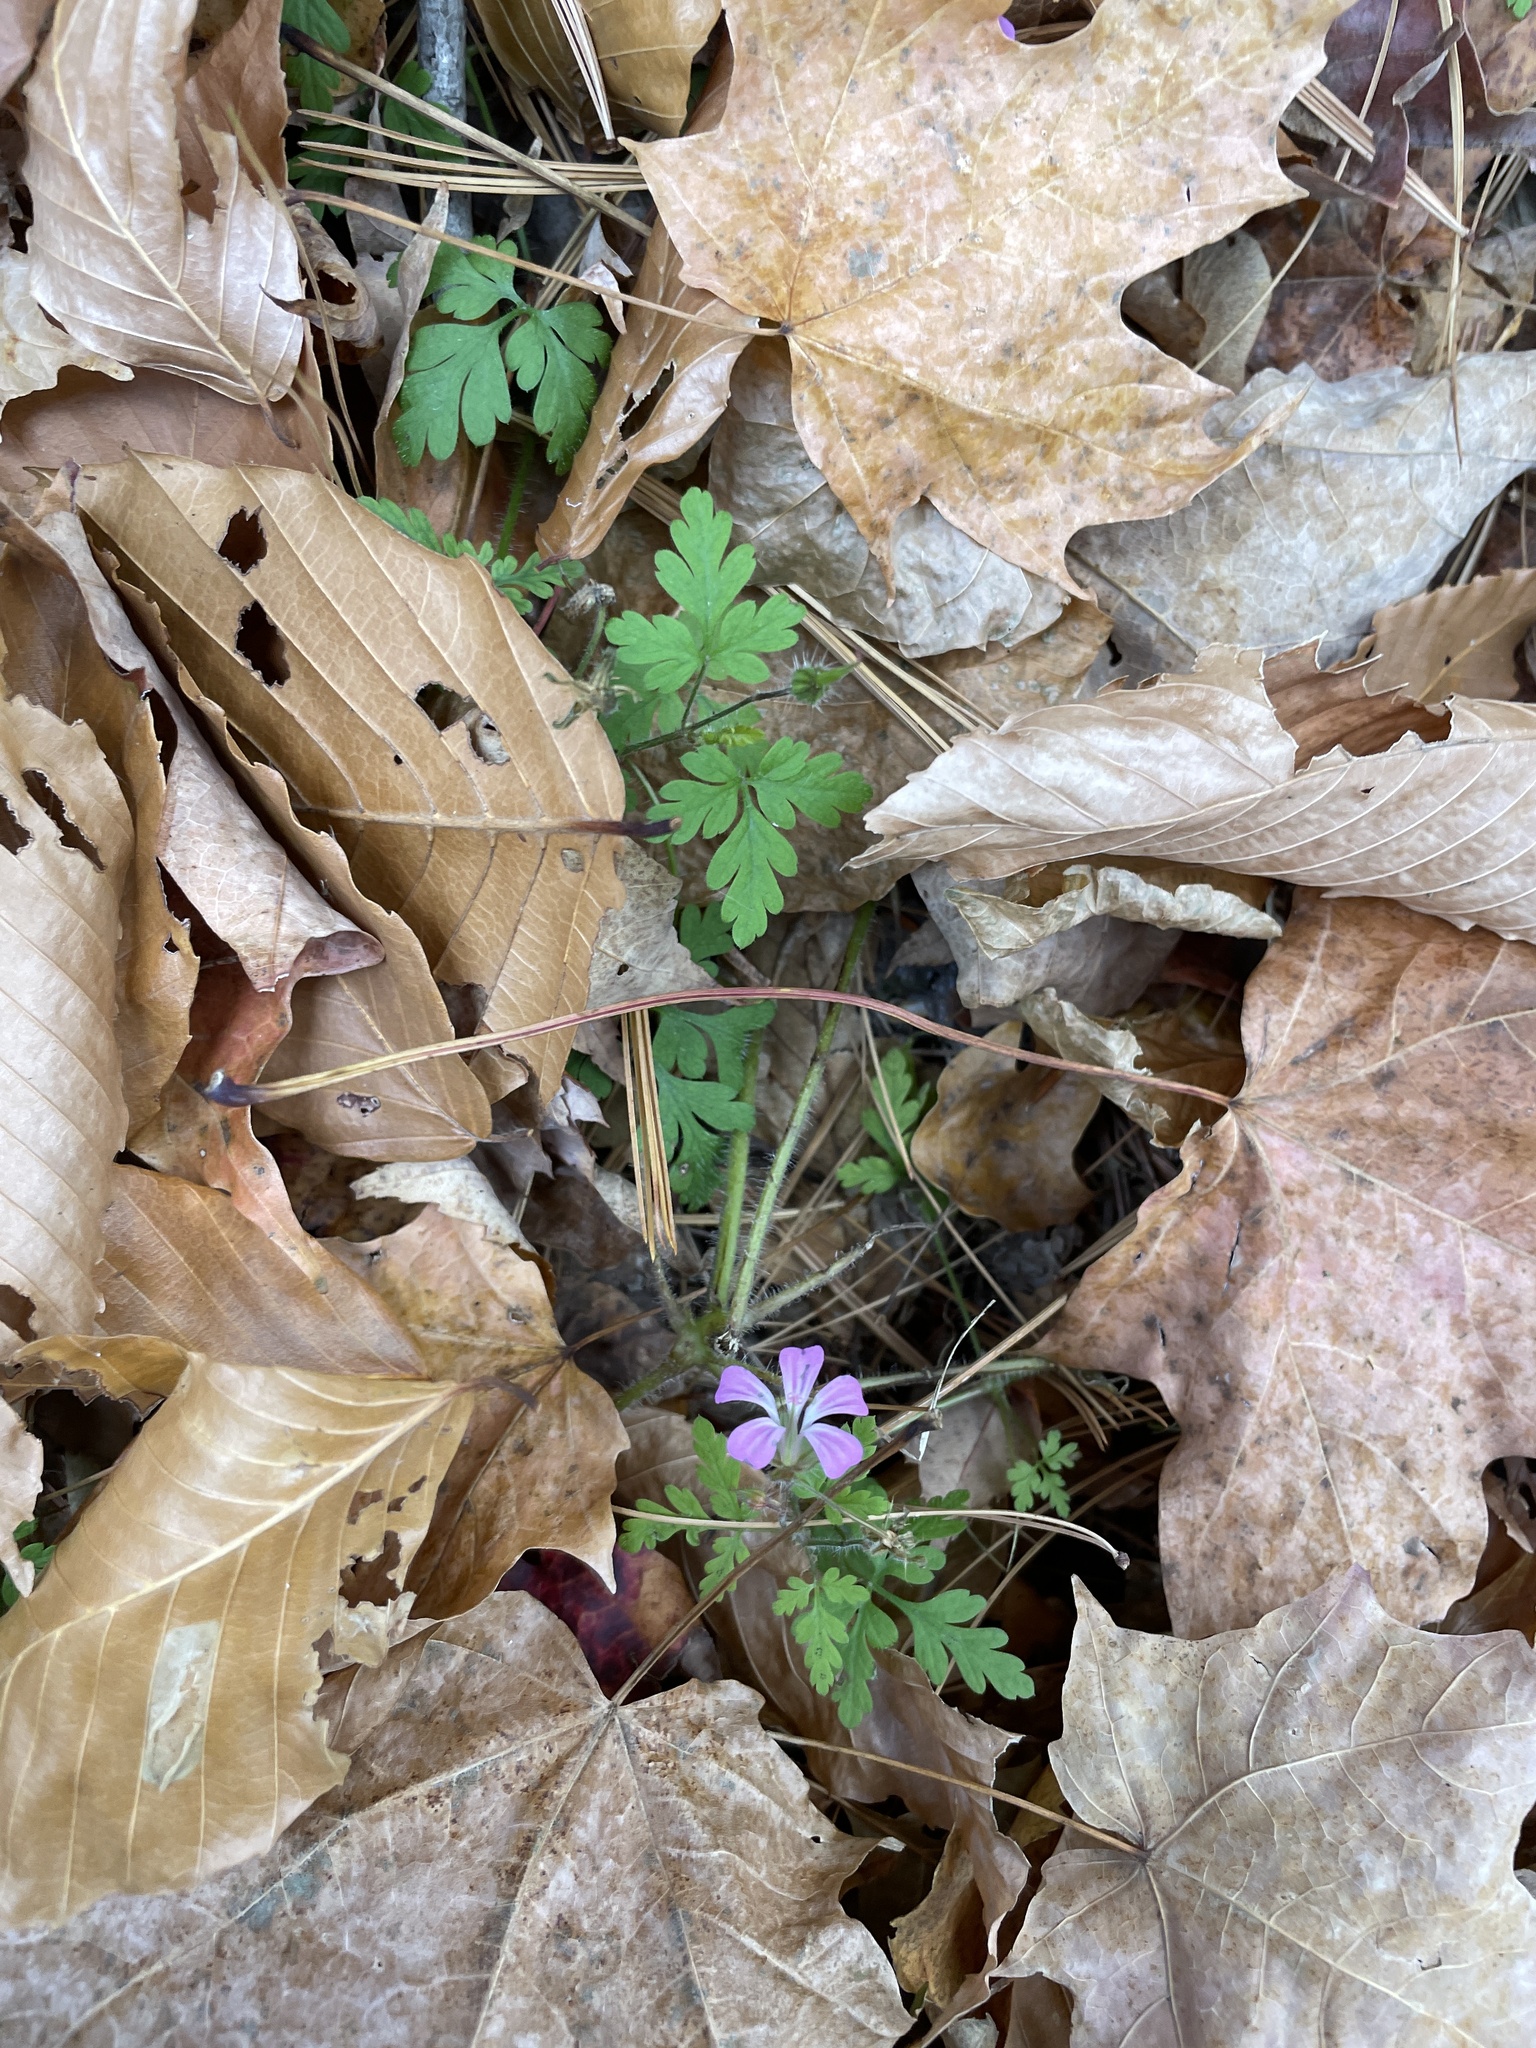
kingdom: Plantae
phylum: Tracheophyta
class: Magnoliopsida
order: Geraniales
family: Geraniaceae
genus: Geranium
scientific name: Geranium robertianum
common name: Herb-robert
